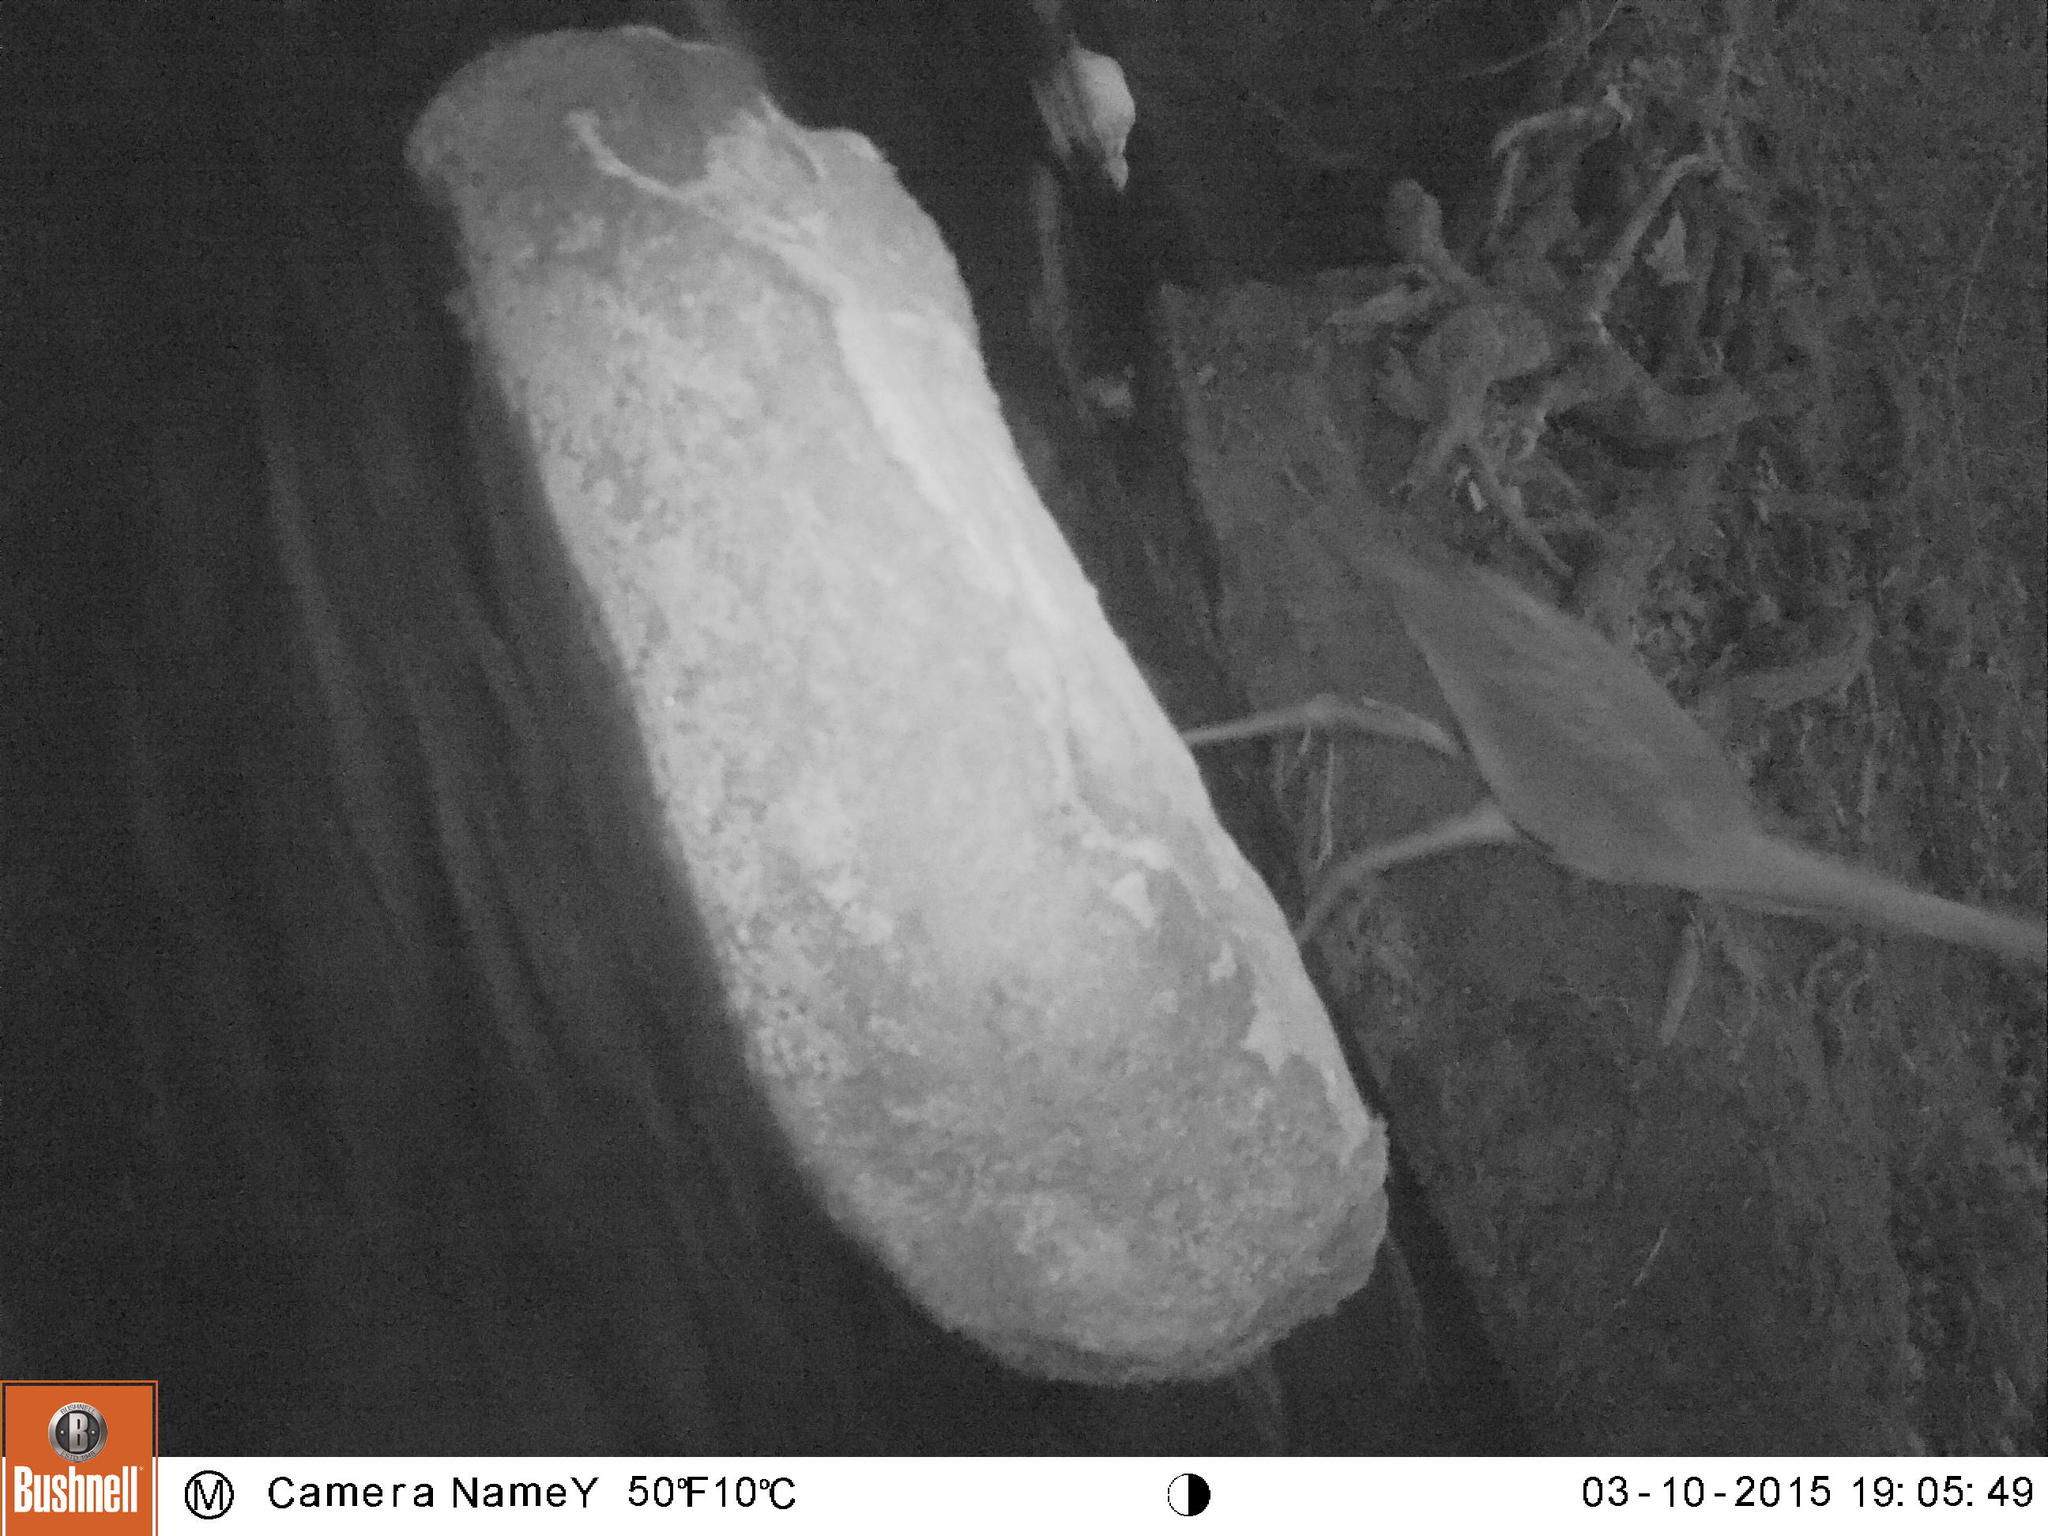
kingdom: Animalia
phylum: Chordata
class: Aves
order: Pelecaniformes
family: Ardeidae
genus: Ardea
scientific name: Ardea cinerea
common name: Grey heron
